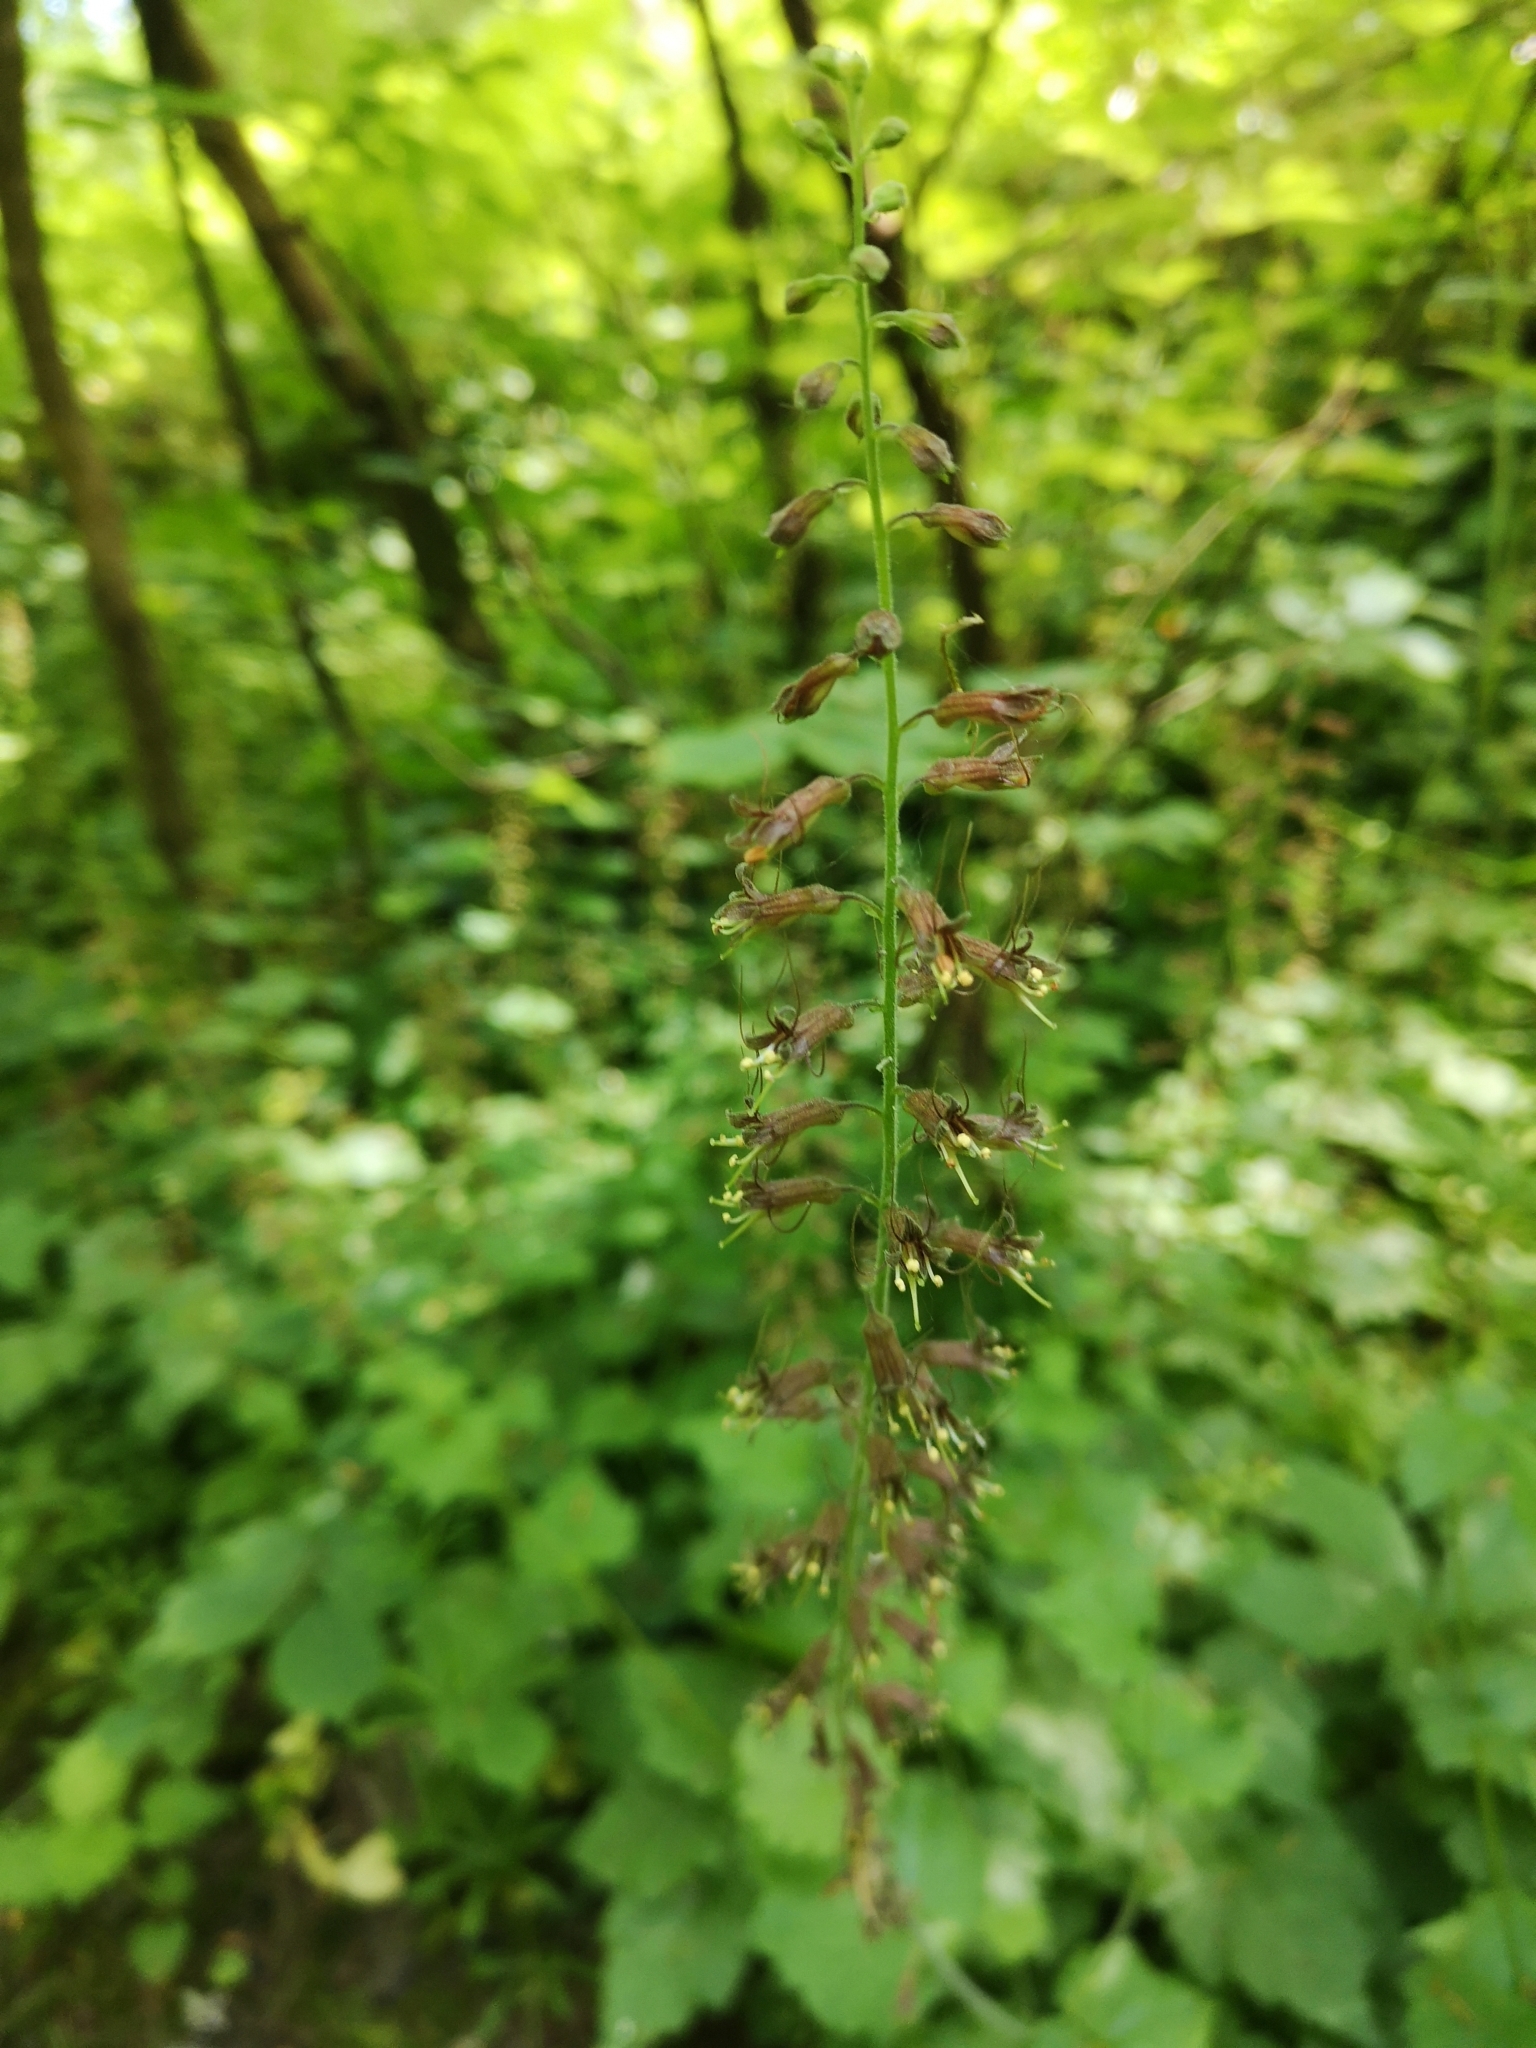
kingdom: Plantae
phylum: Tracheophyta
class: Magnoliopsida
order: Saxifragales
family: Saxifragaceae
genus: Tolmiea
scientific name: Tolmiea menziesii
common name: Pick-a-back-plant
